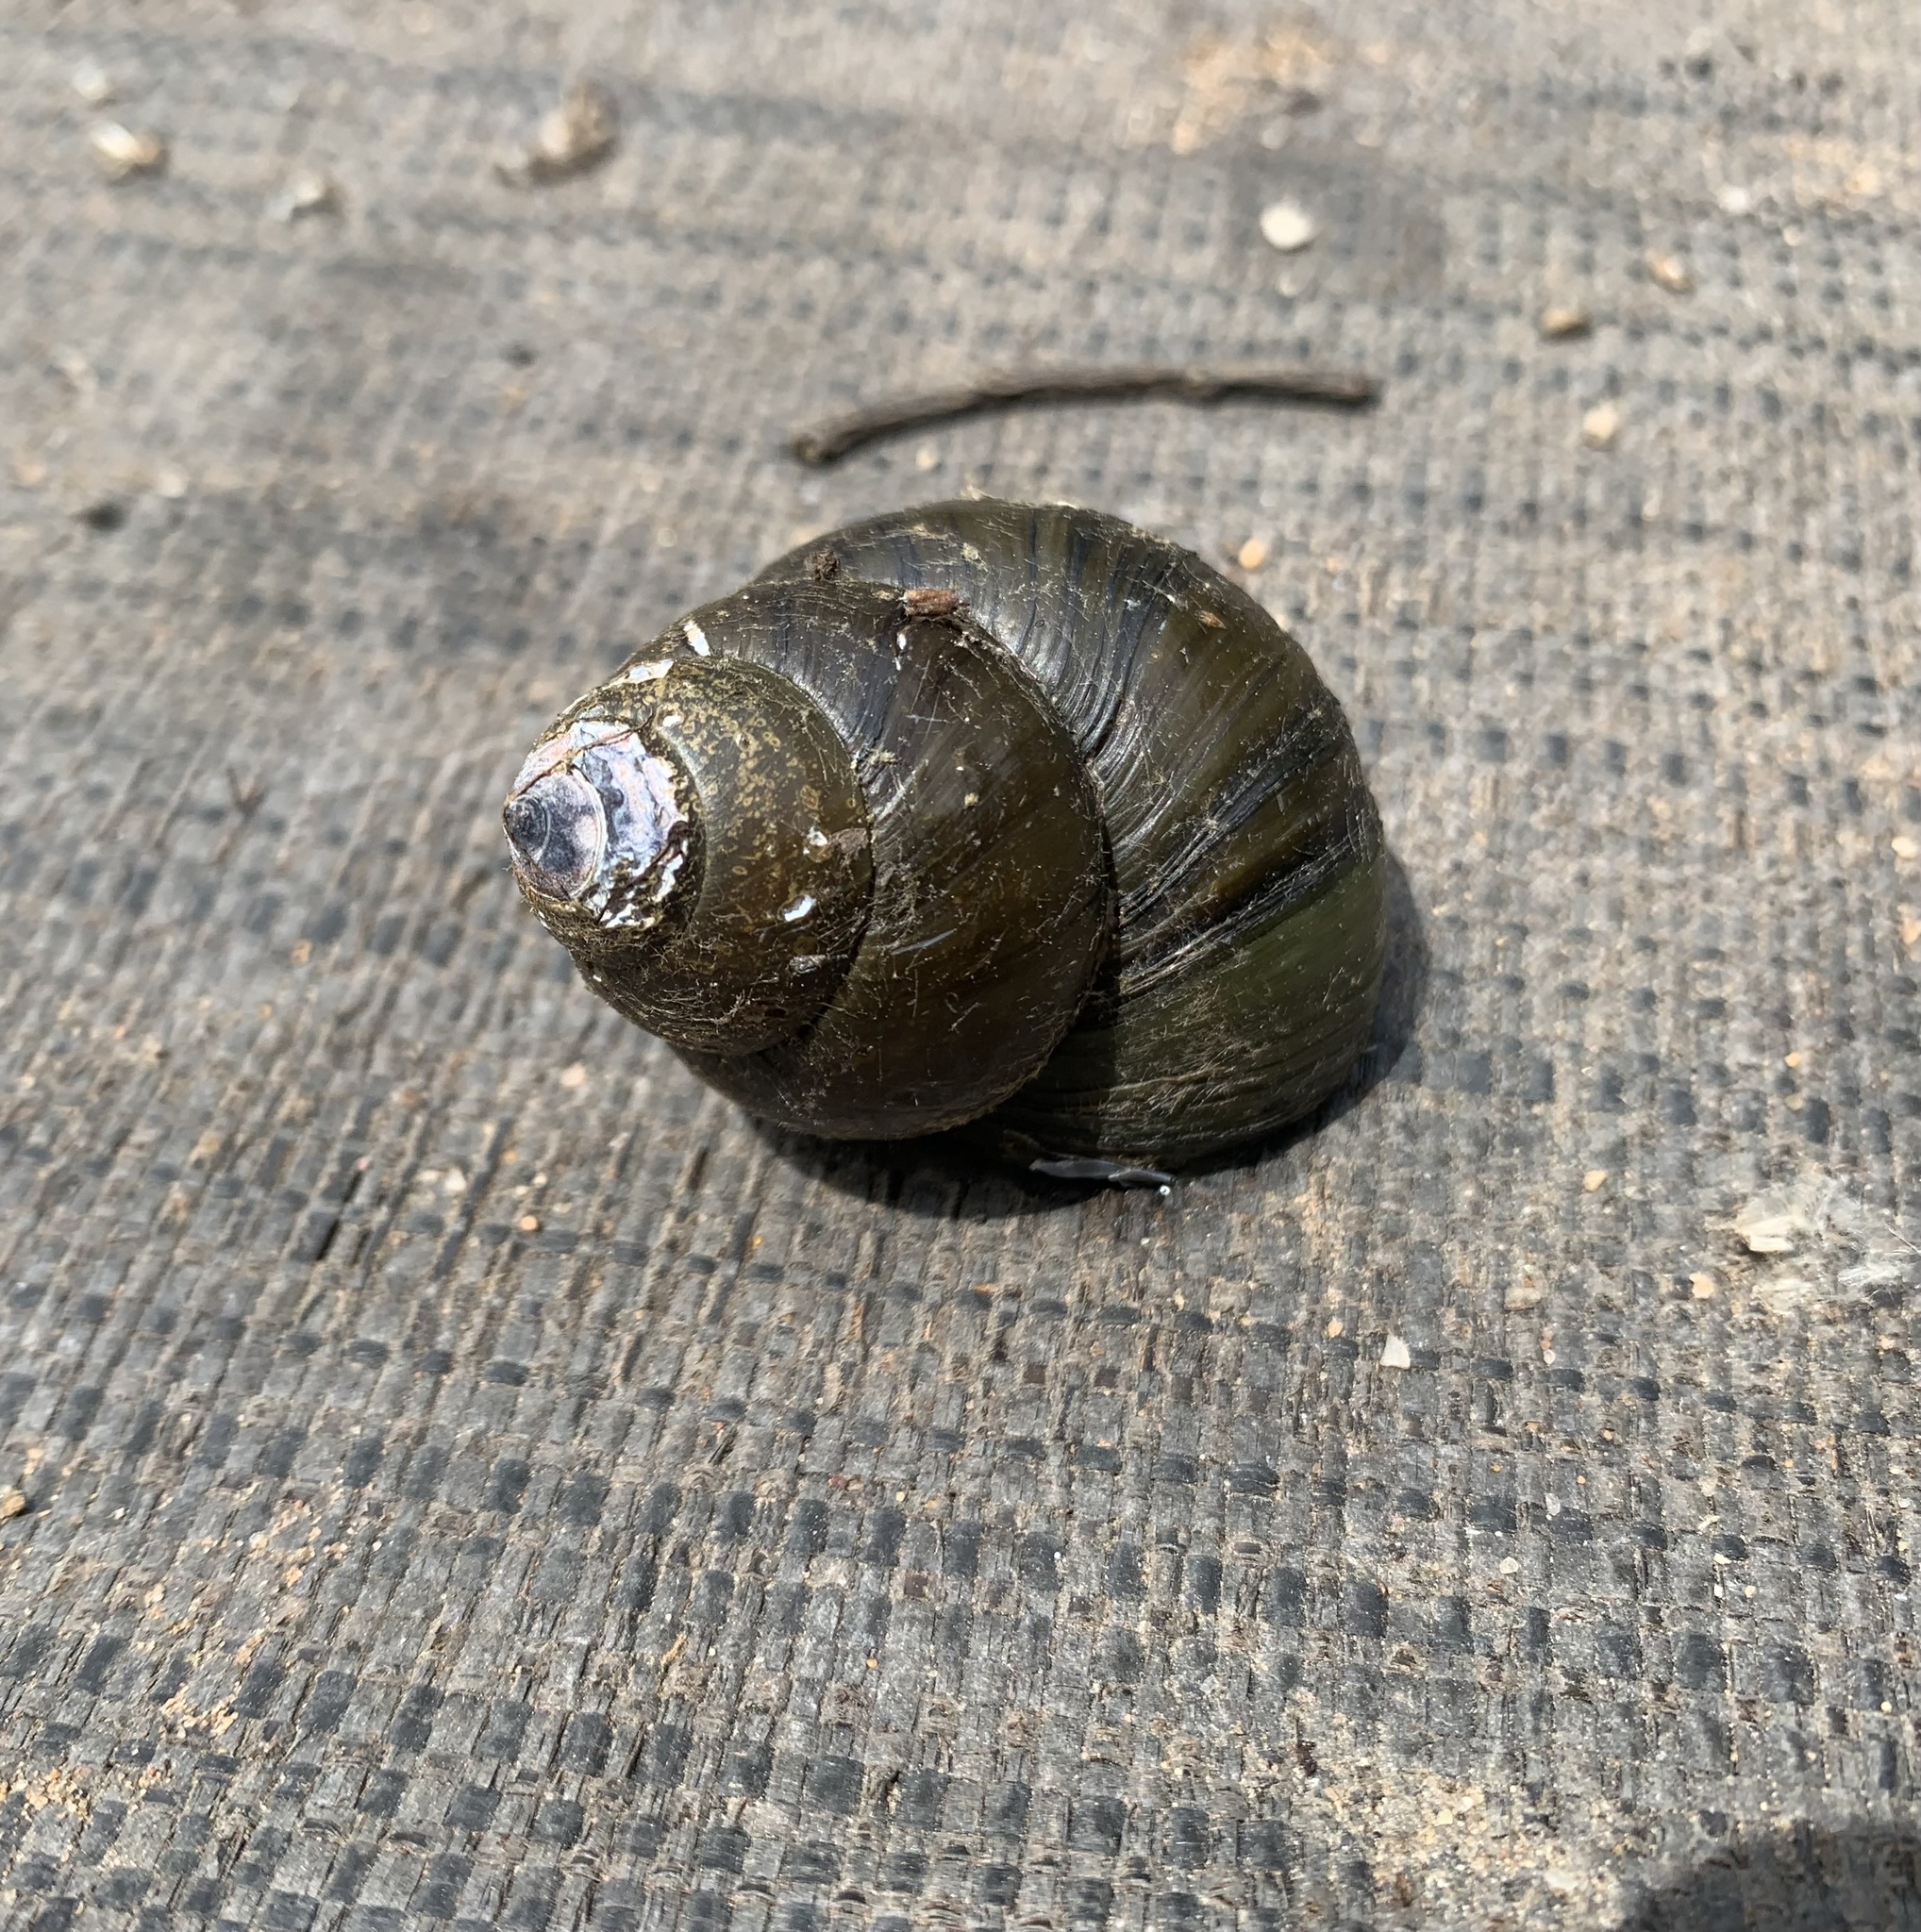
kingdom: Animalia
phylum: Mollusca
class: Gastropoda
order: Architaenioglossa
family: Viviparidae
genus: Cipangopaludina
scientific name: Cipangopaludina chinensis
